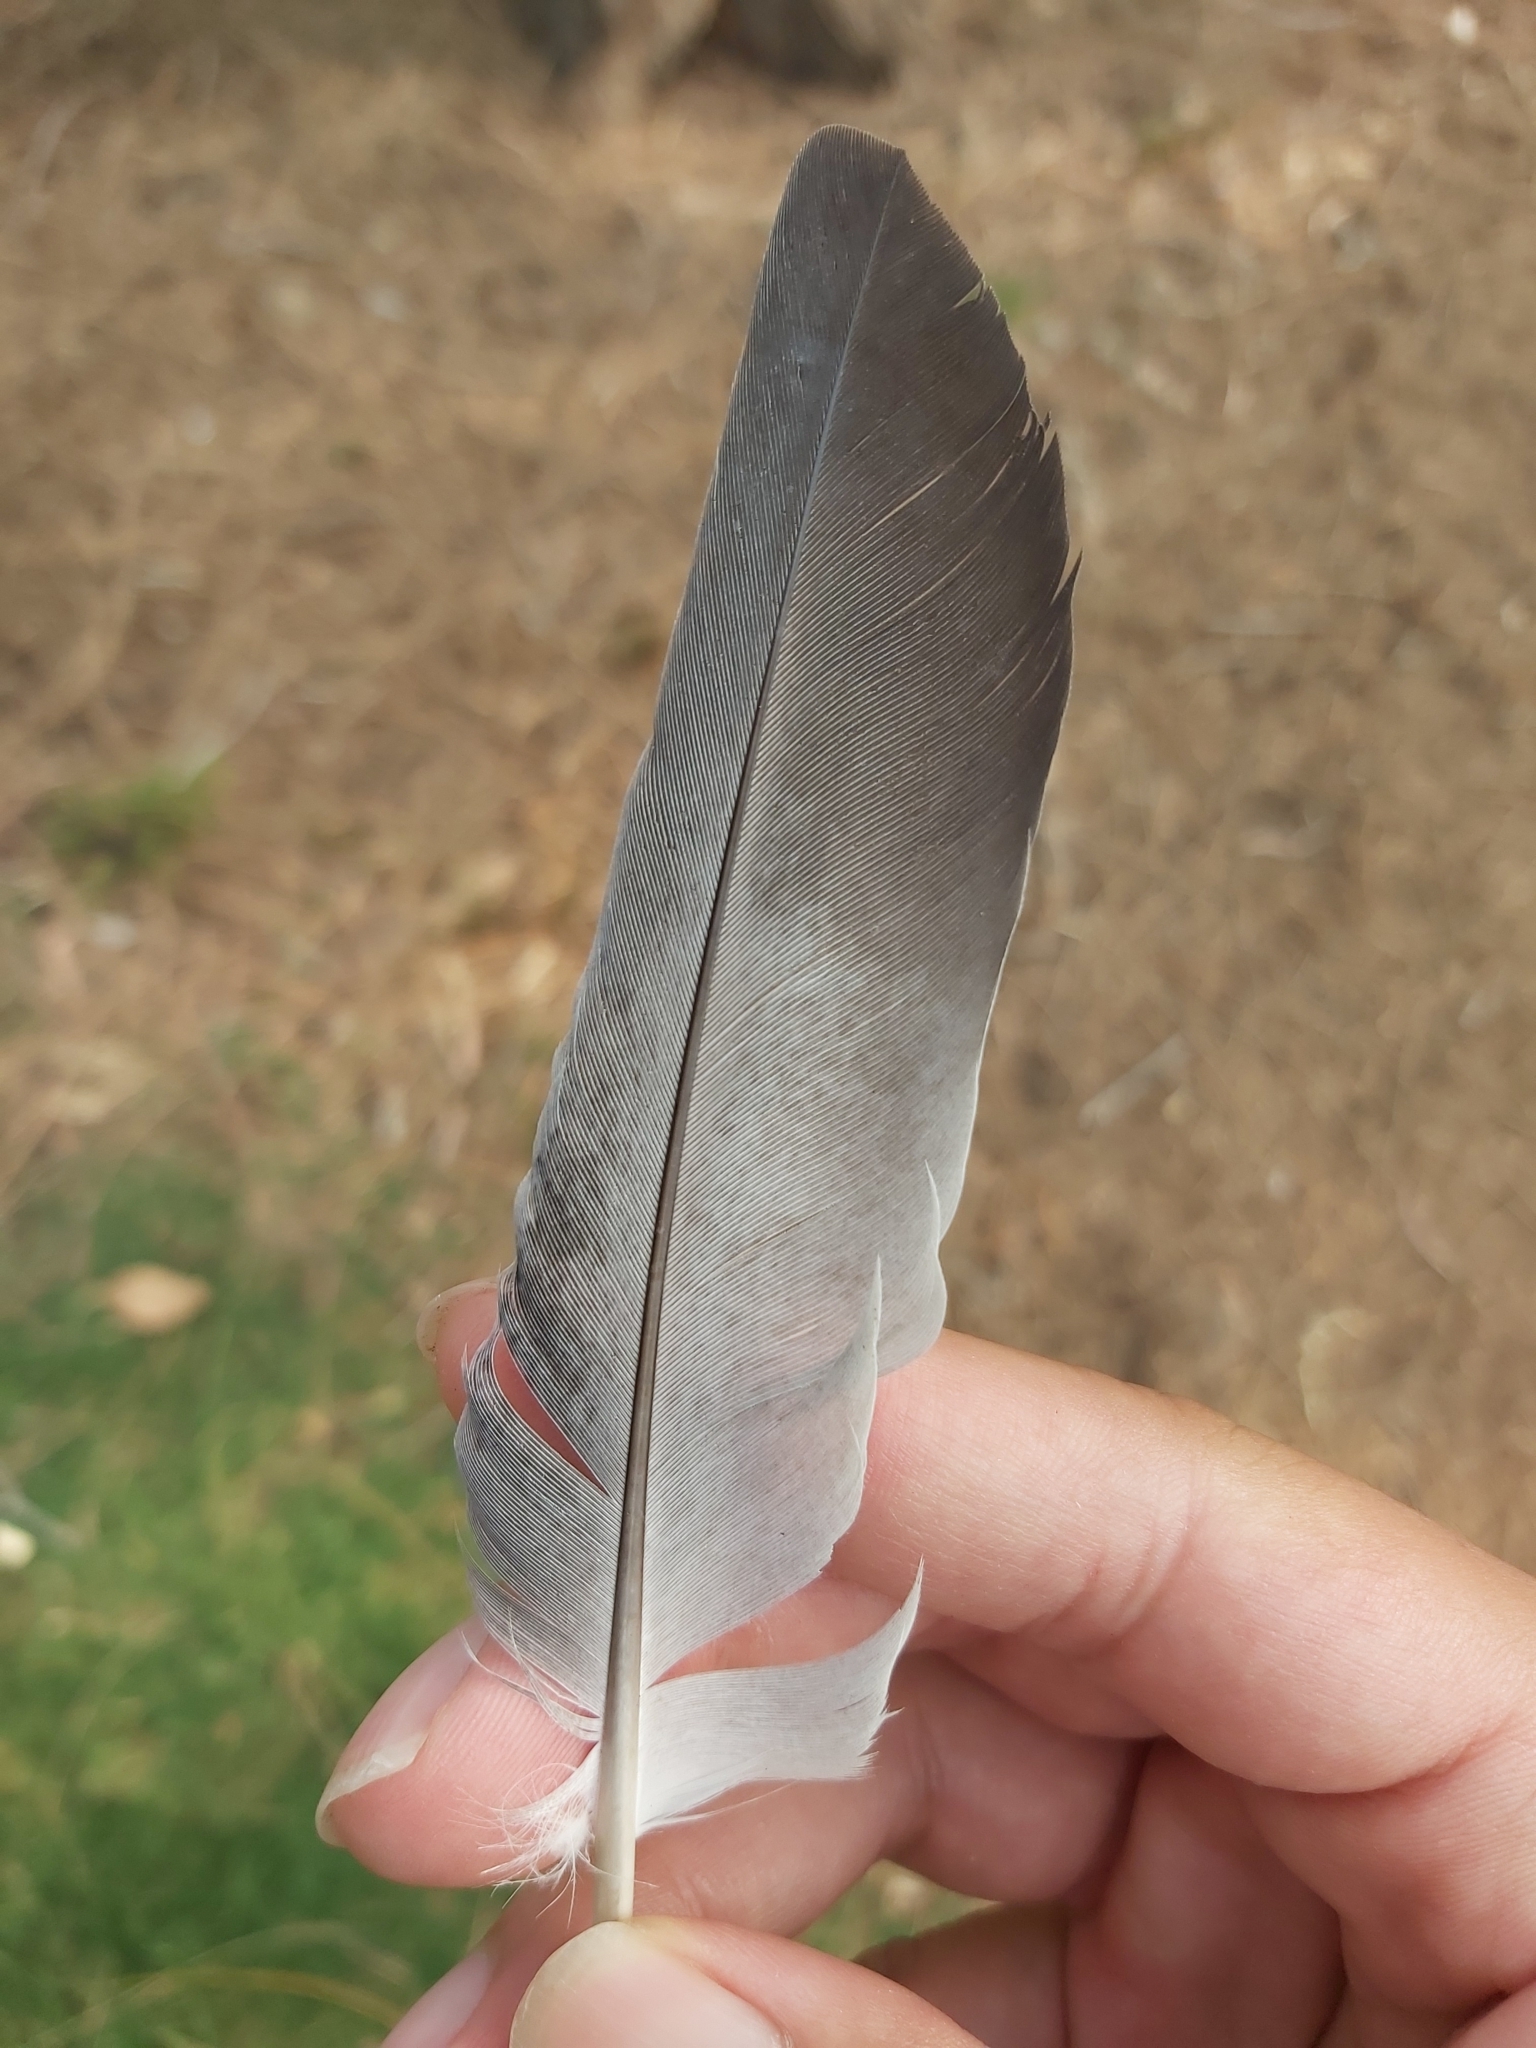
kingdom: Animalia
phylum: Chordata
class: Aves
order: Columbiformes
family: Columbidae
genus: Columba
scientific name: Columba livia
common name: Rock pigeon
